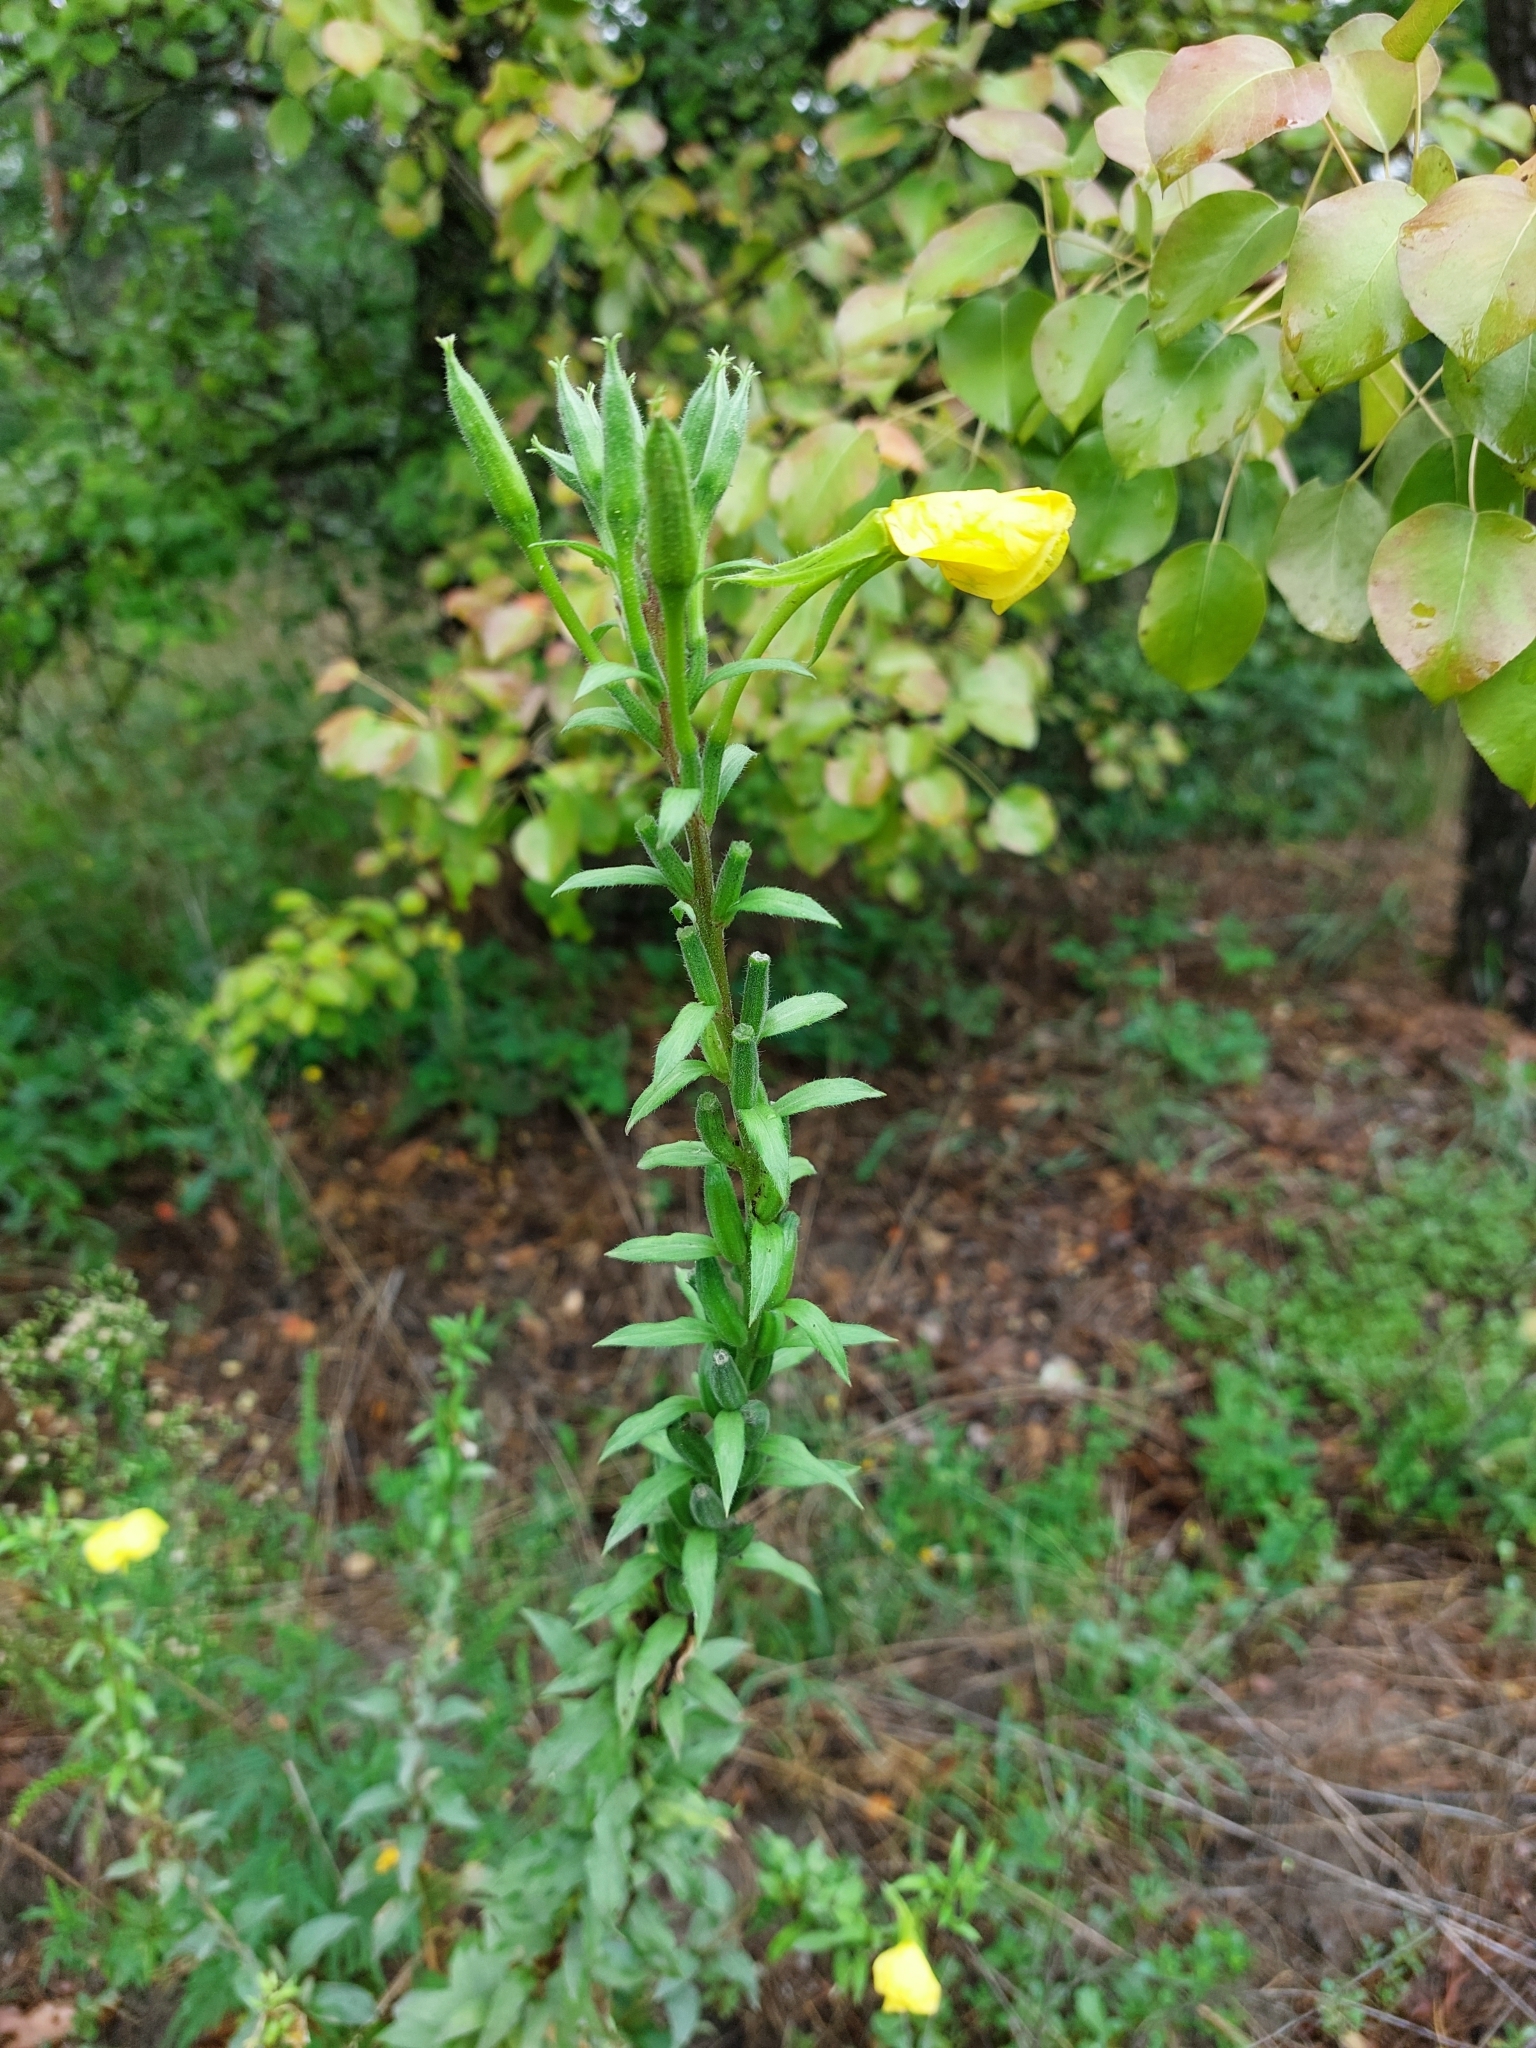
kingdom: Plantae
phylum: Tracheophyta
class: Magnoliopsida
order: Myrtales
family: Onagraceae
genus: Oenothera
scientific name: Oenothera rubricaulis
